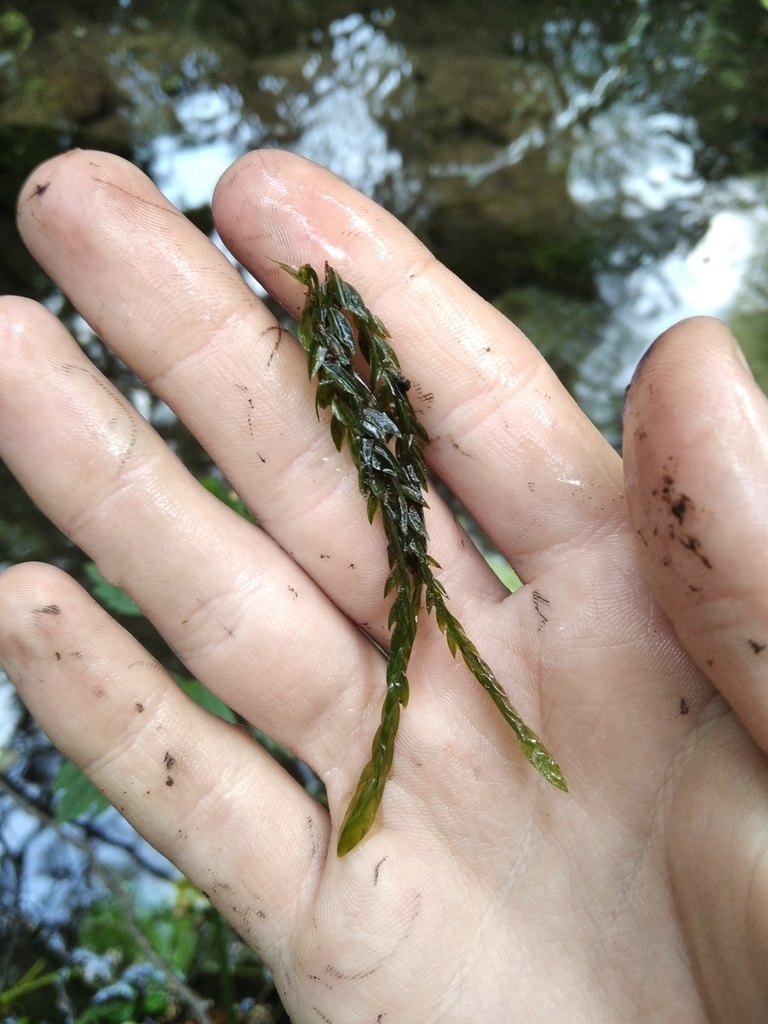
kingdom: Plantae
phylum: Bryophyta
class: Bryopsida
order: Hypnales
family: Fontinalaceae
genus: Fontinalis
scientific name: Fontinalis antipyretica
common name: Greater water-moss
